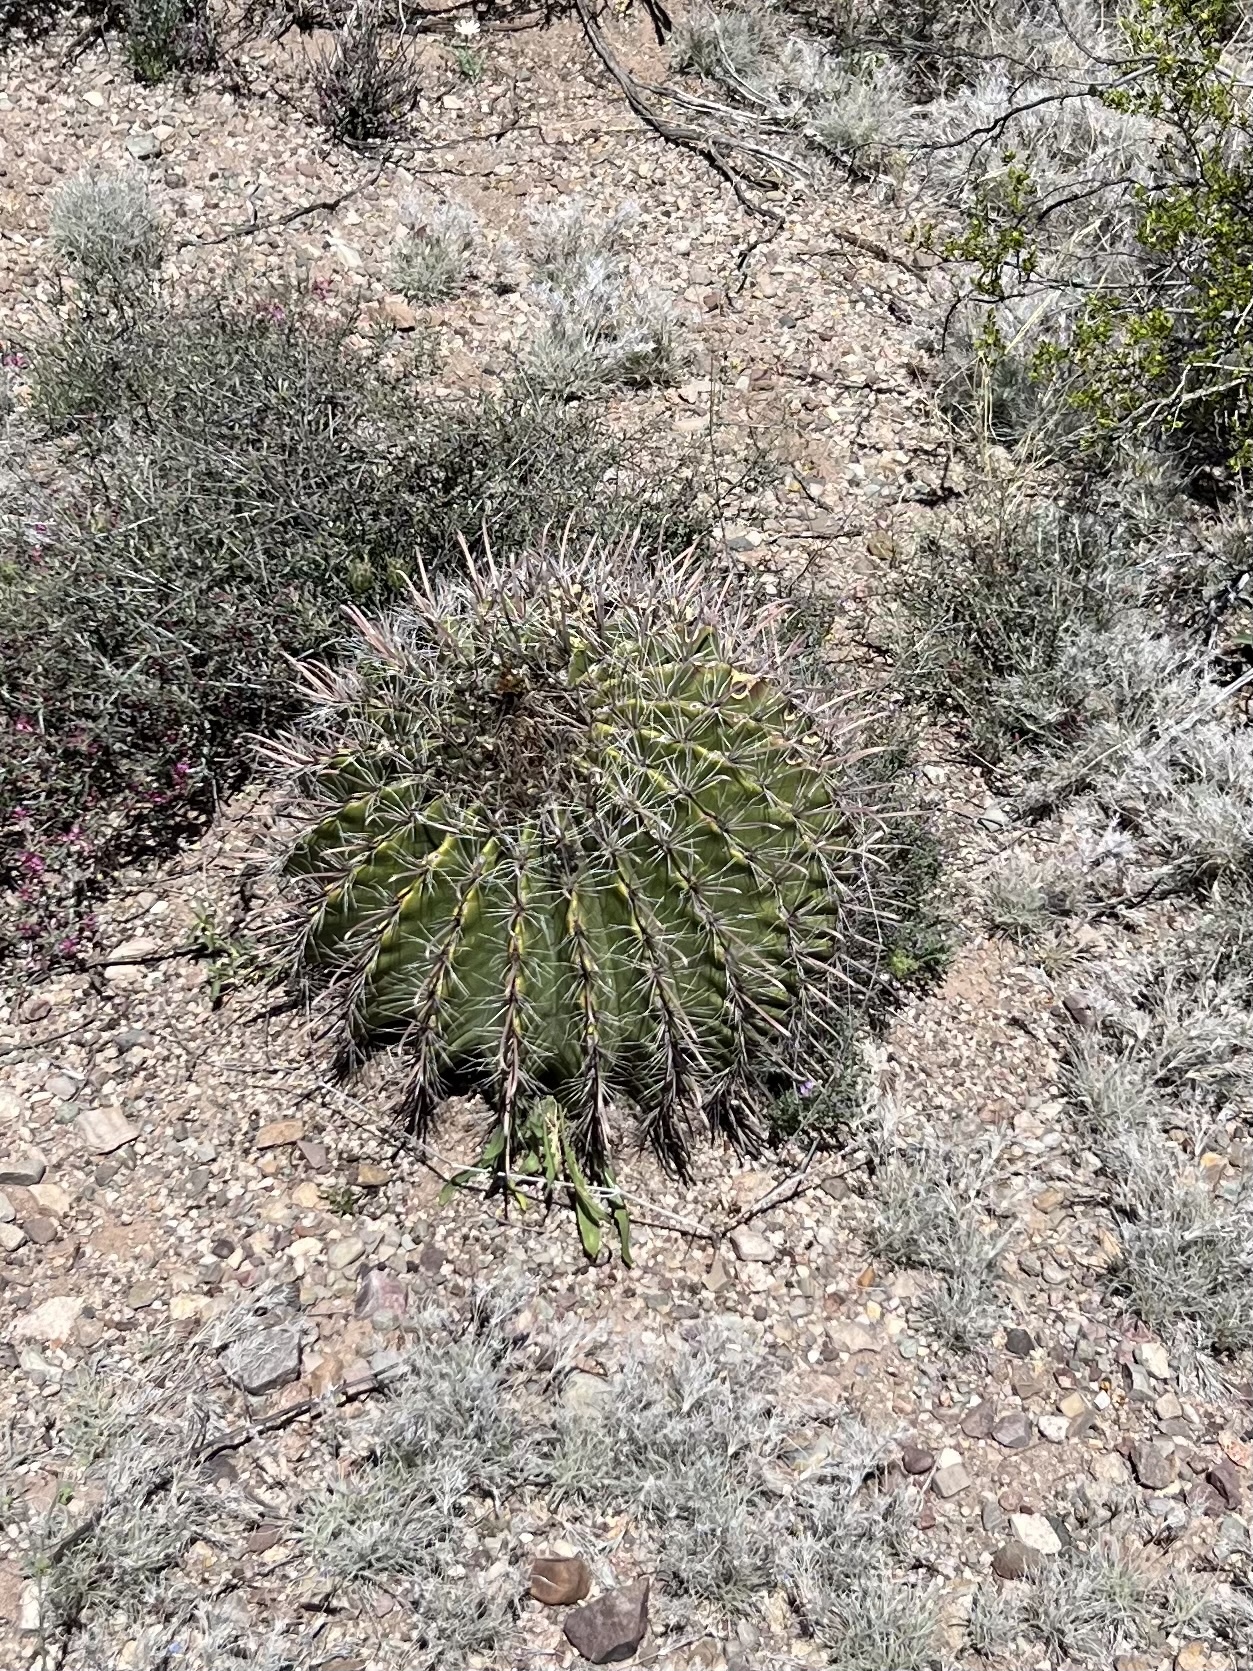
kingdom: Plantae
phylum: Tracheophyta
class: Magnoliopsida
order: Caryophyllales
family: Cactaceae
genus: Ferocactus
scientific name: Ferocactus wislizeni
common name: Candy barrel cactus
